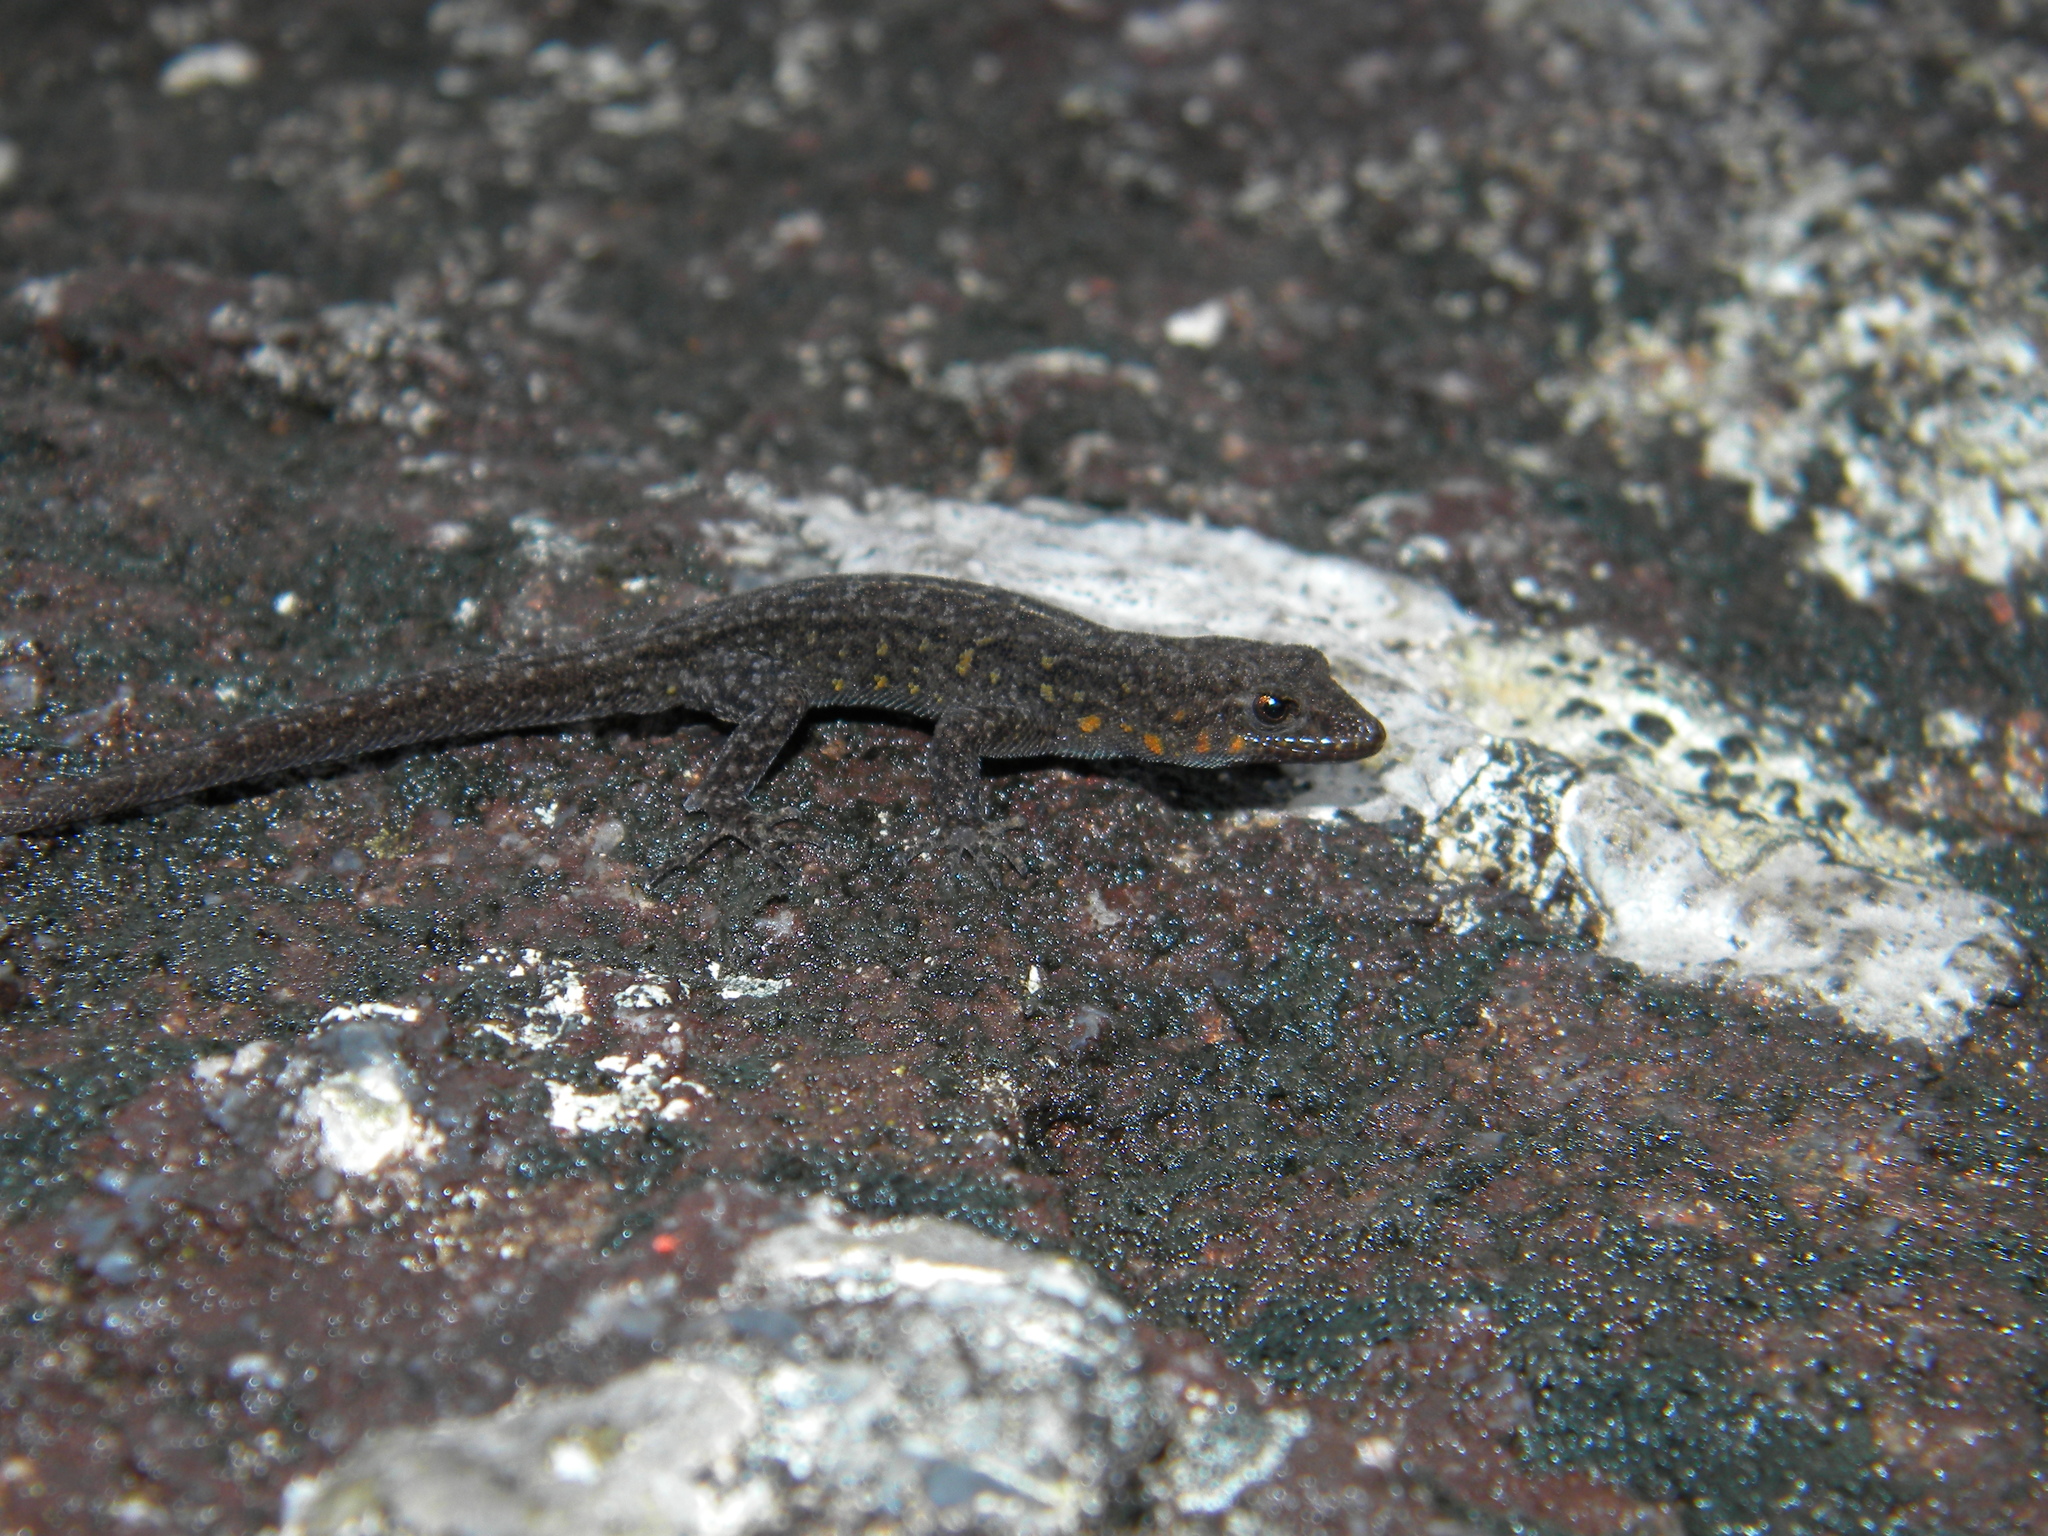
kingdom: Animalia
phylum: Chordata
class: Squamata
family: Gekkonidae
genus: Cnemaspis
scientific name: Cnemaspis indica
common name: Nilgiri dwarf gecko
